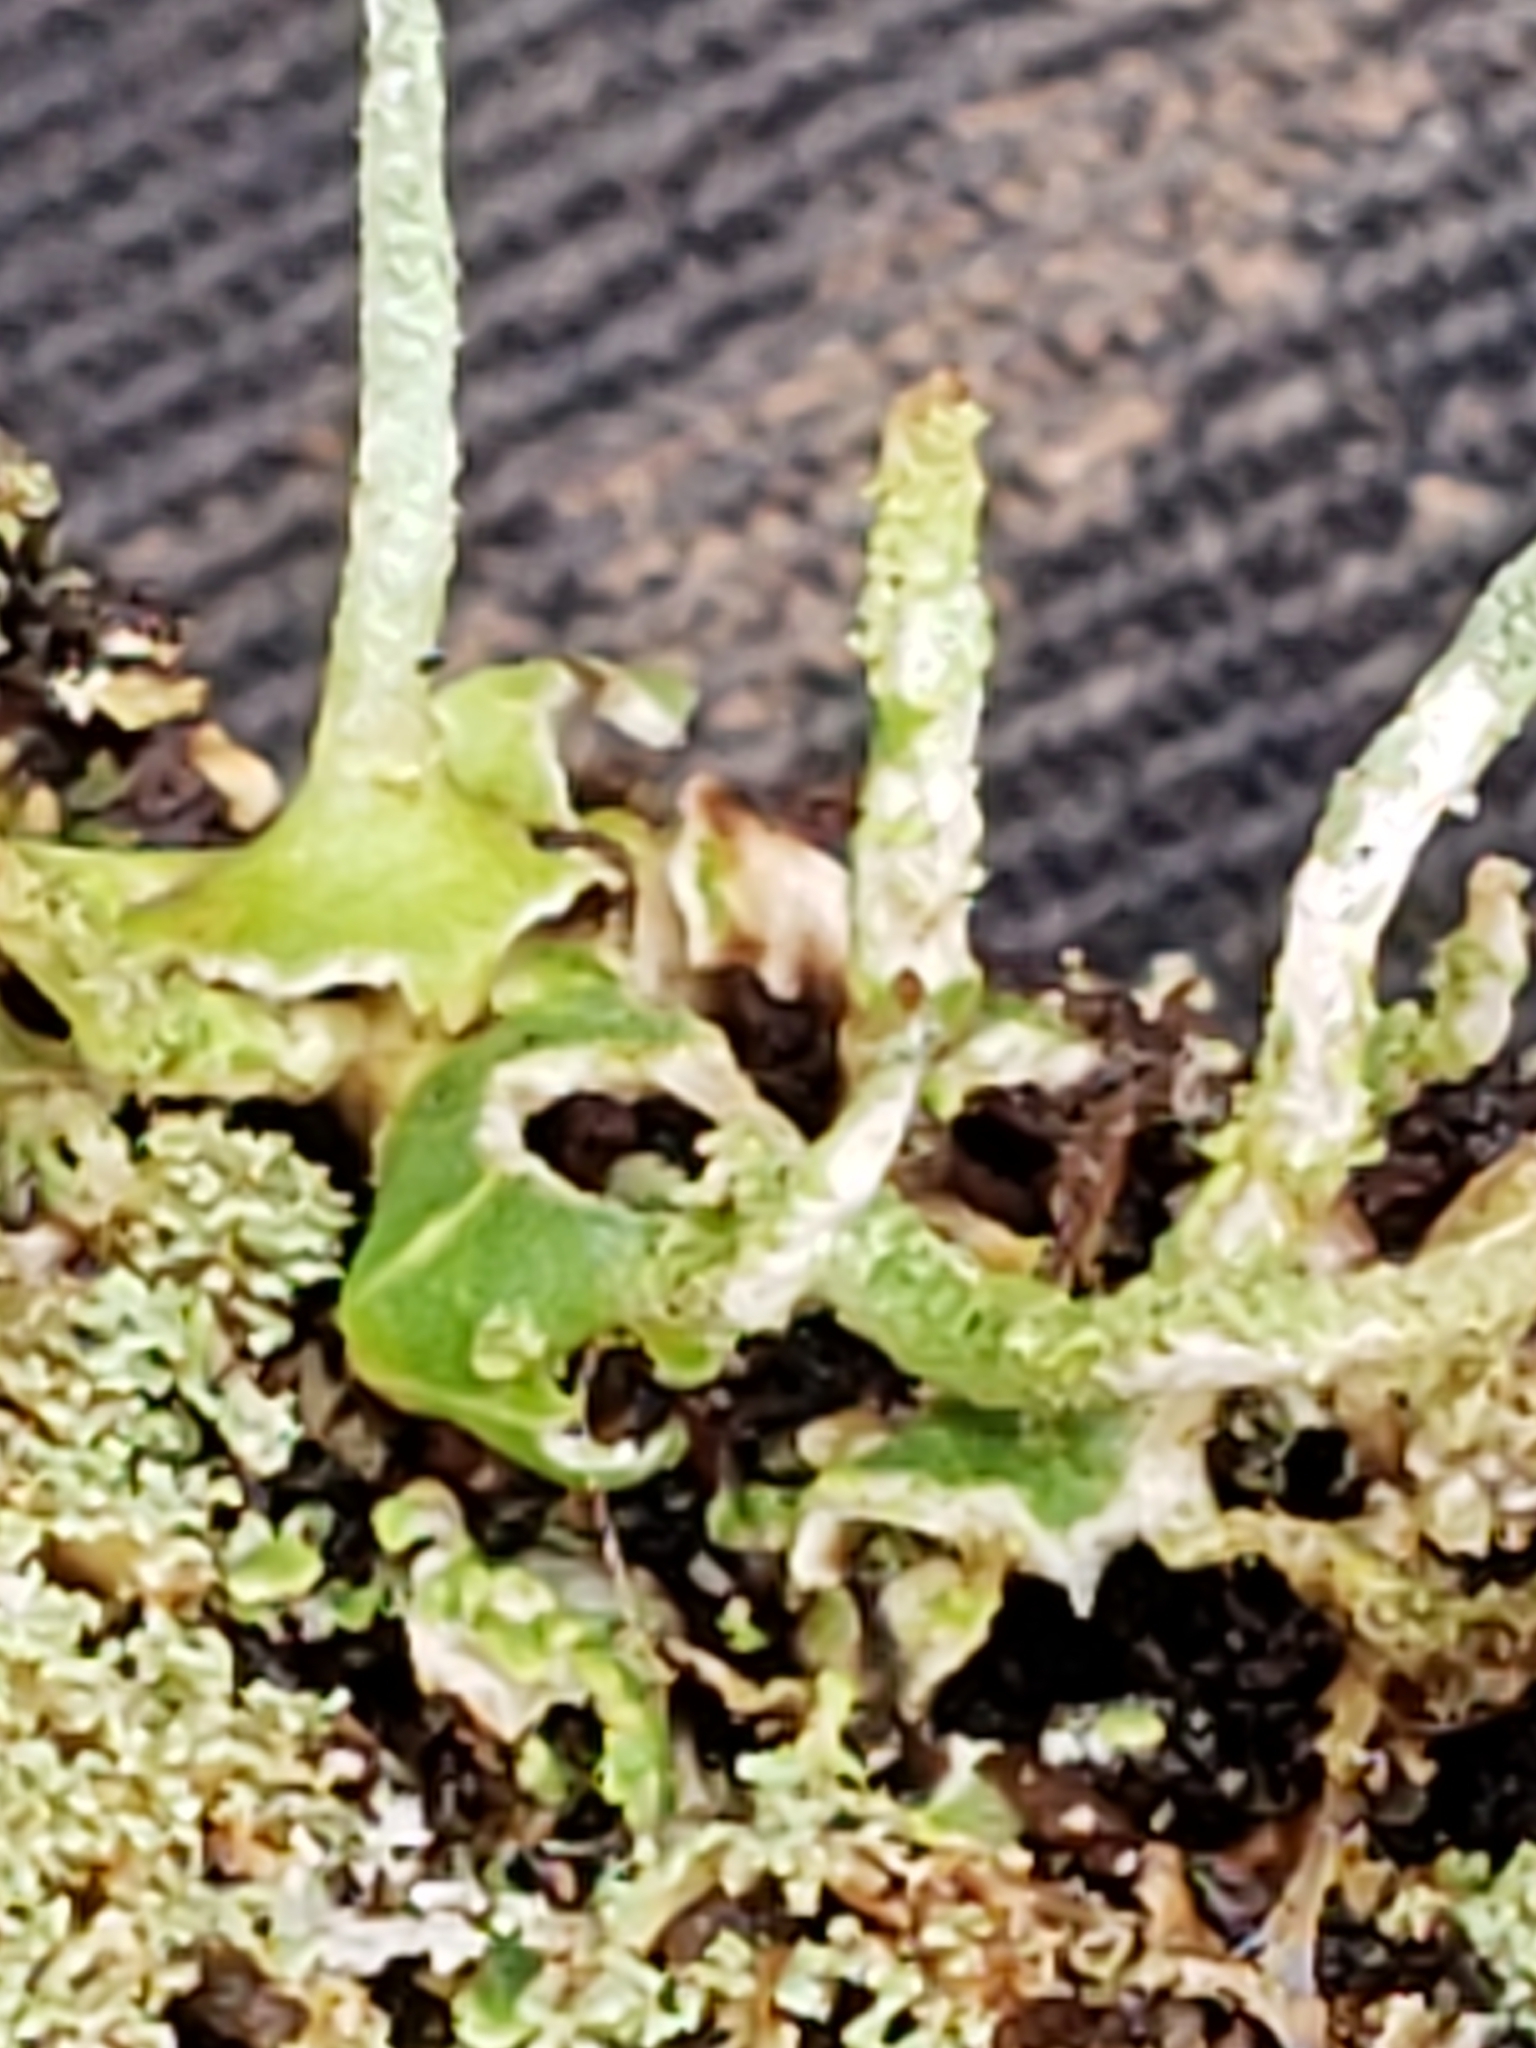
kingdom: Fungi
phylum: Ascomycota
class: Lecanoromycetes
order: Lecanorales
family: Cladoniaceae
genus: Cladonia
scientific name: Cladonia coniocraea
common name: Common powderhorn
